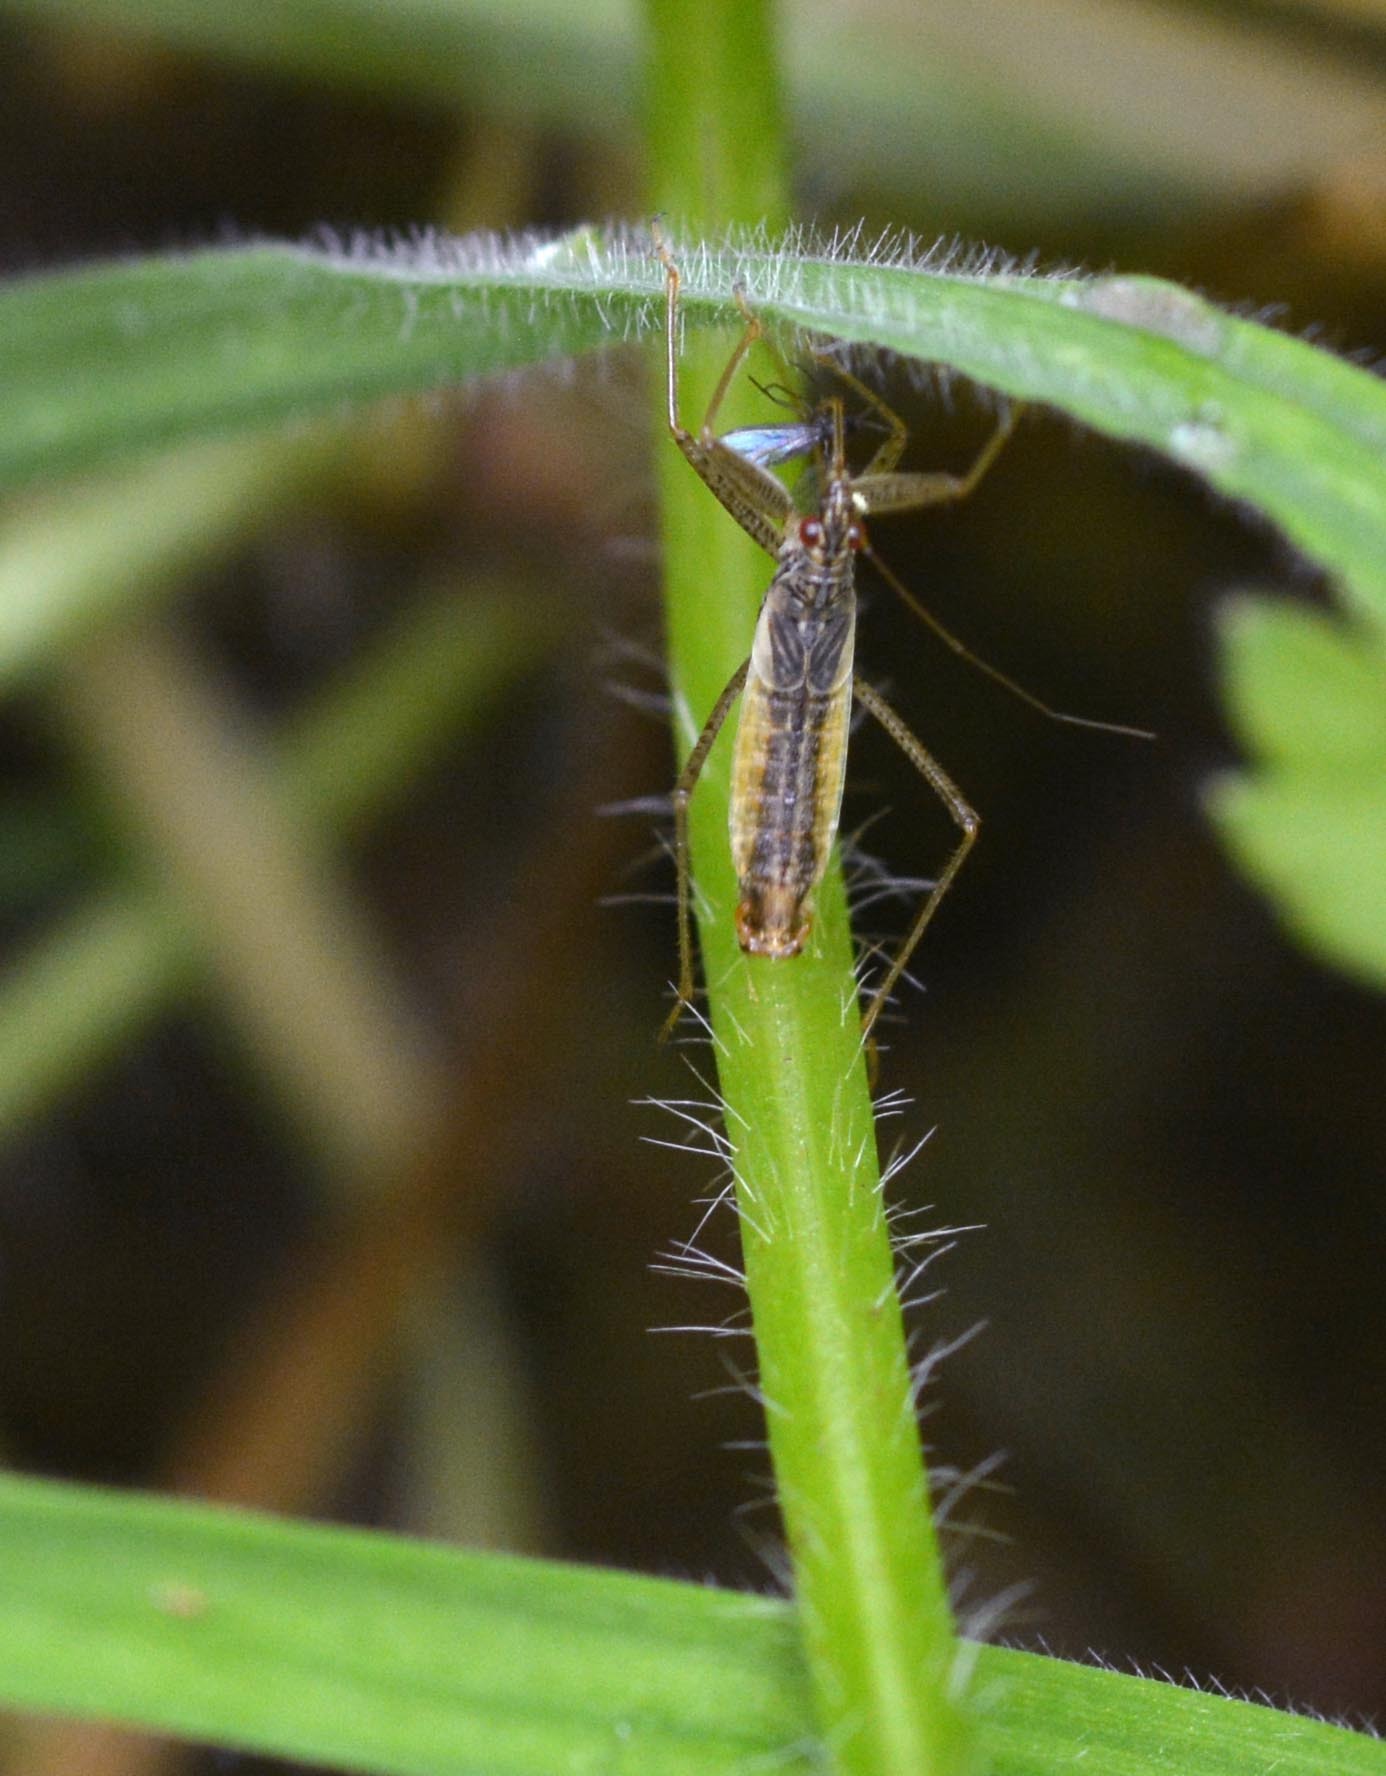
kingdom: Animalia
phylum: Arthropoda
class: Insecta
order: Hemiptera
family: Nabidae
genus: Nabis
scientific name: Nabis limbatus
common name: Marsh damselbug
